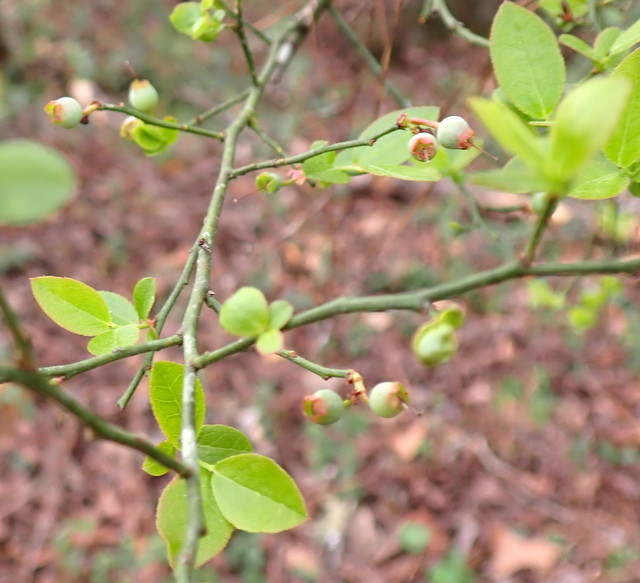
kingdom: Plantae
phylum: Tracheophyta
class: Magnoliopsida
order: Ericales
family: Ericaceae
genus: Vaccinium
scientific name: Vaccinium corymbosum
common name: Blueberry
